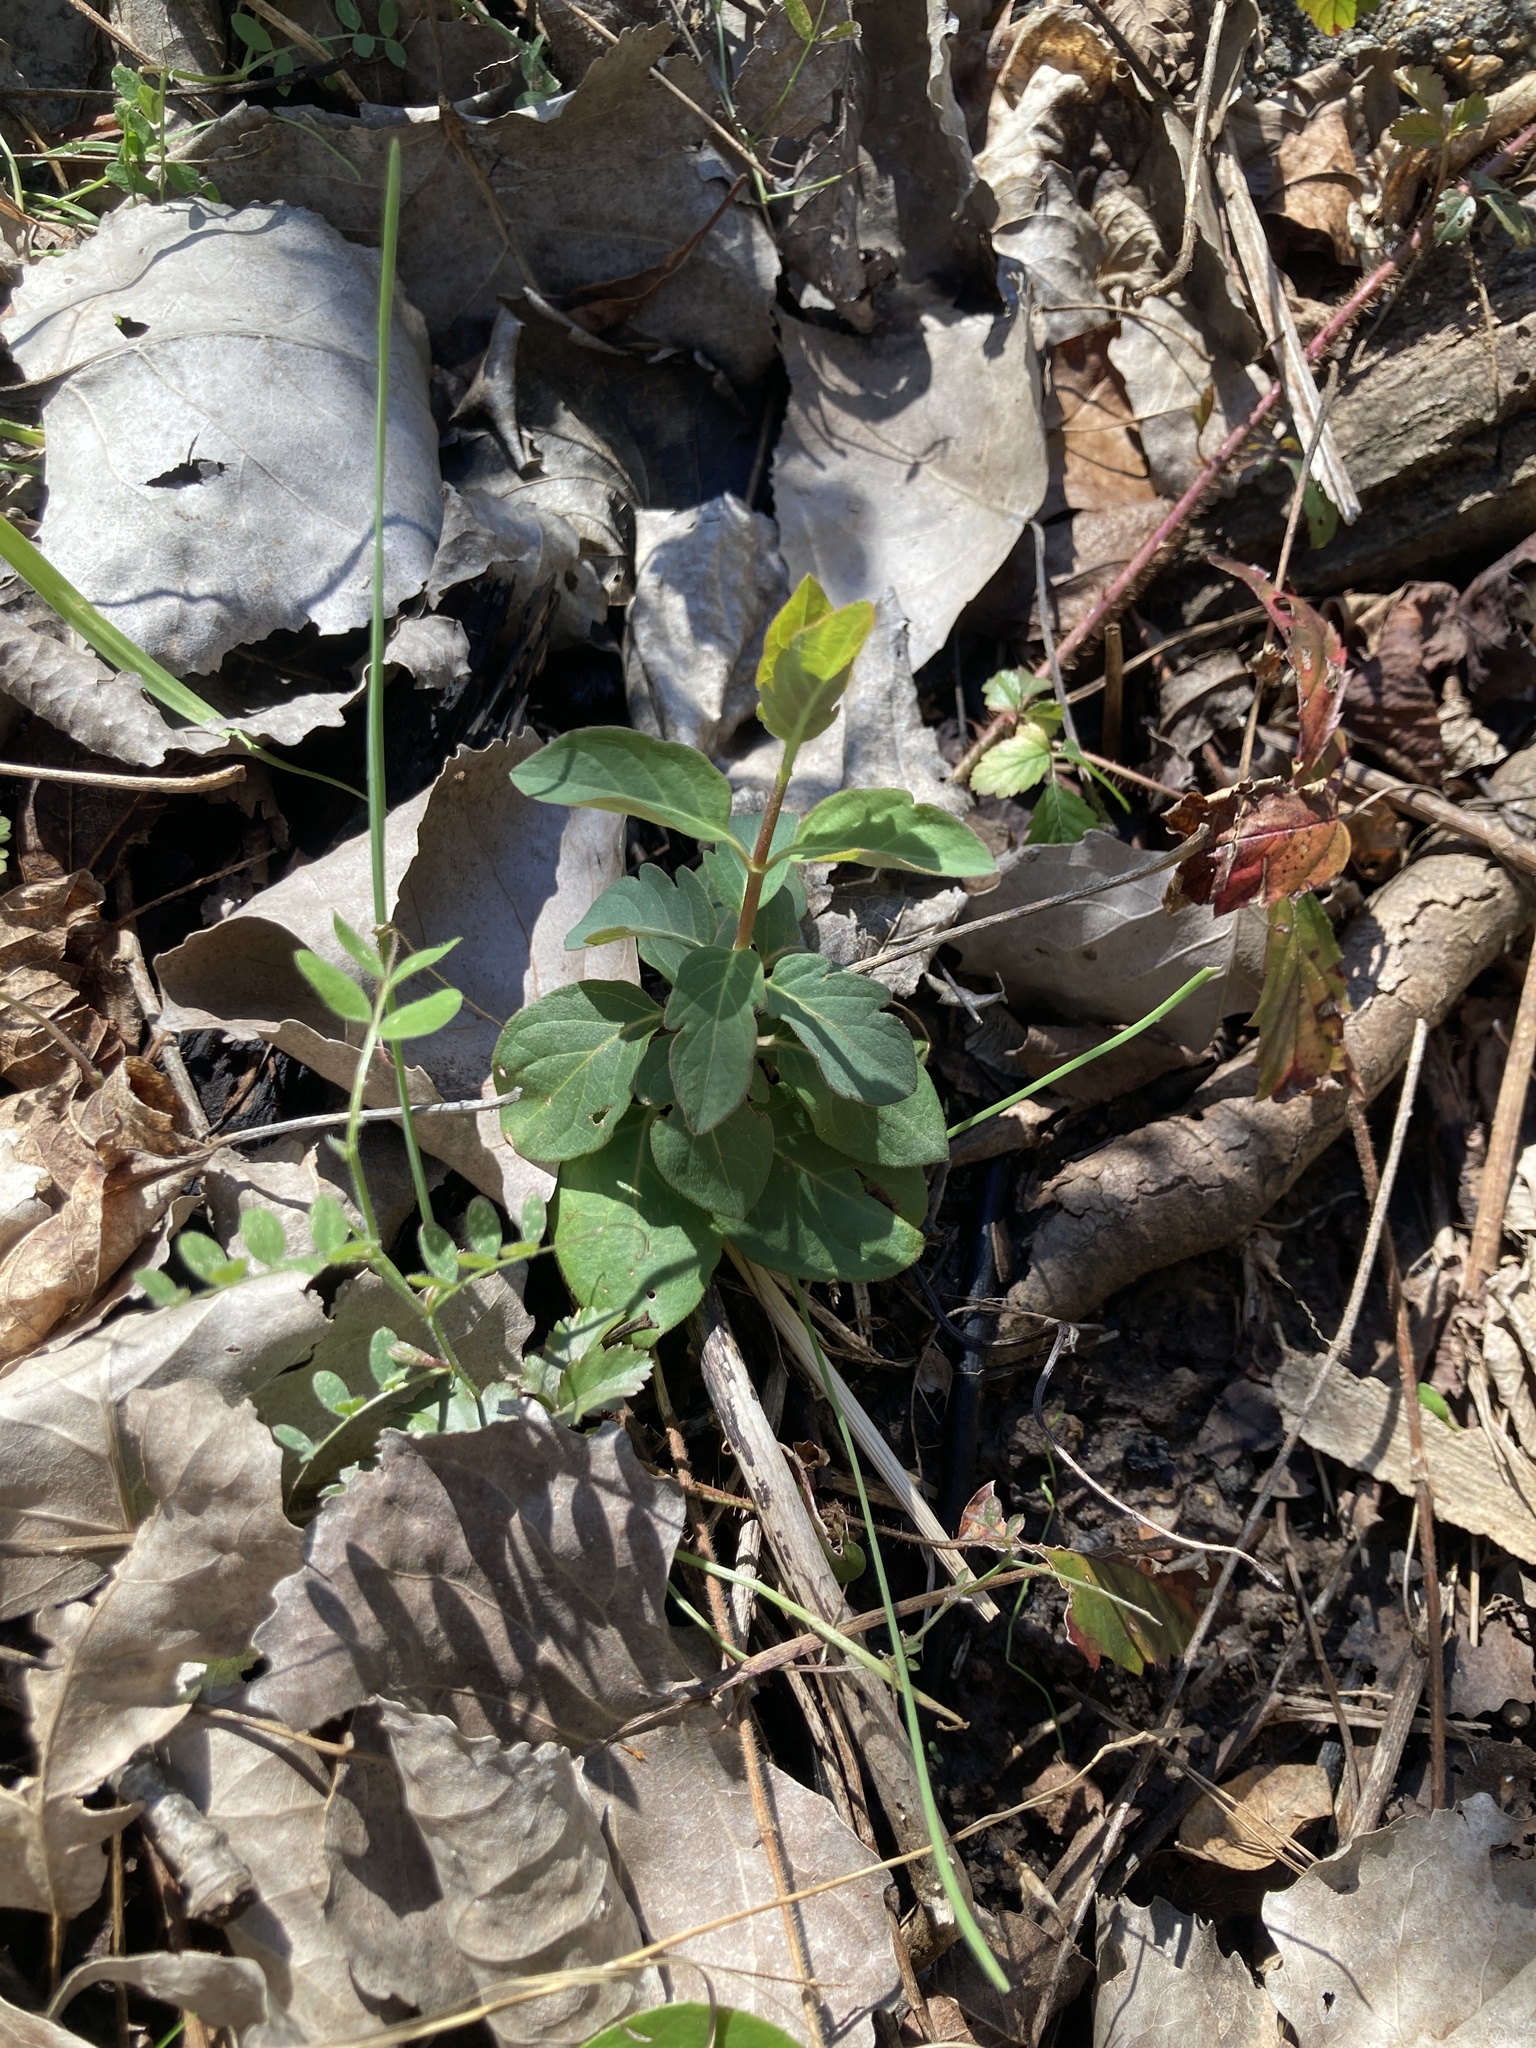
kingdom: Plantae
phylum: Tracheophyta
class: Magnoliopsida
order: Dipsacales
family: Caprifoliaceae
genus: Lonicera
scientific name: Lonicera japonica
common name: Japanese honeysuckle
